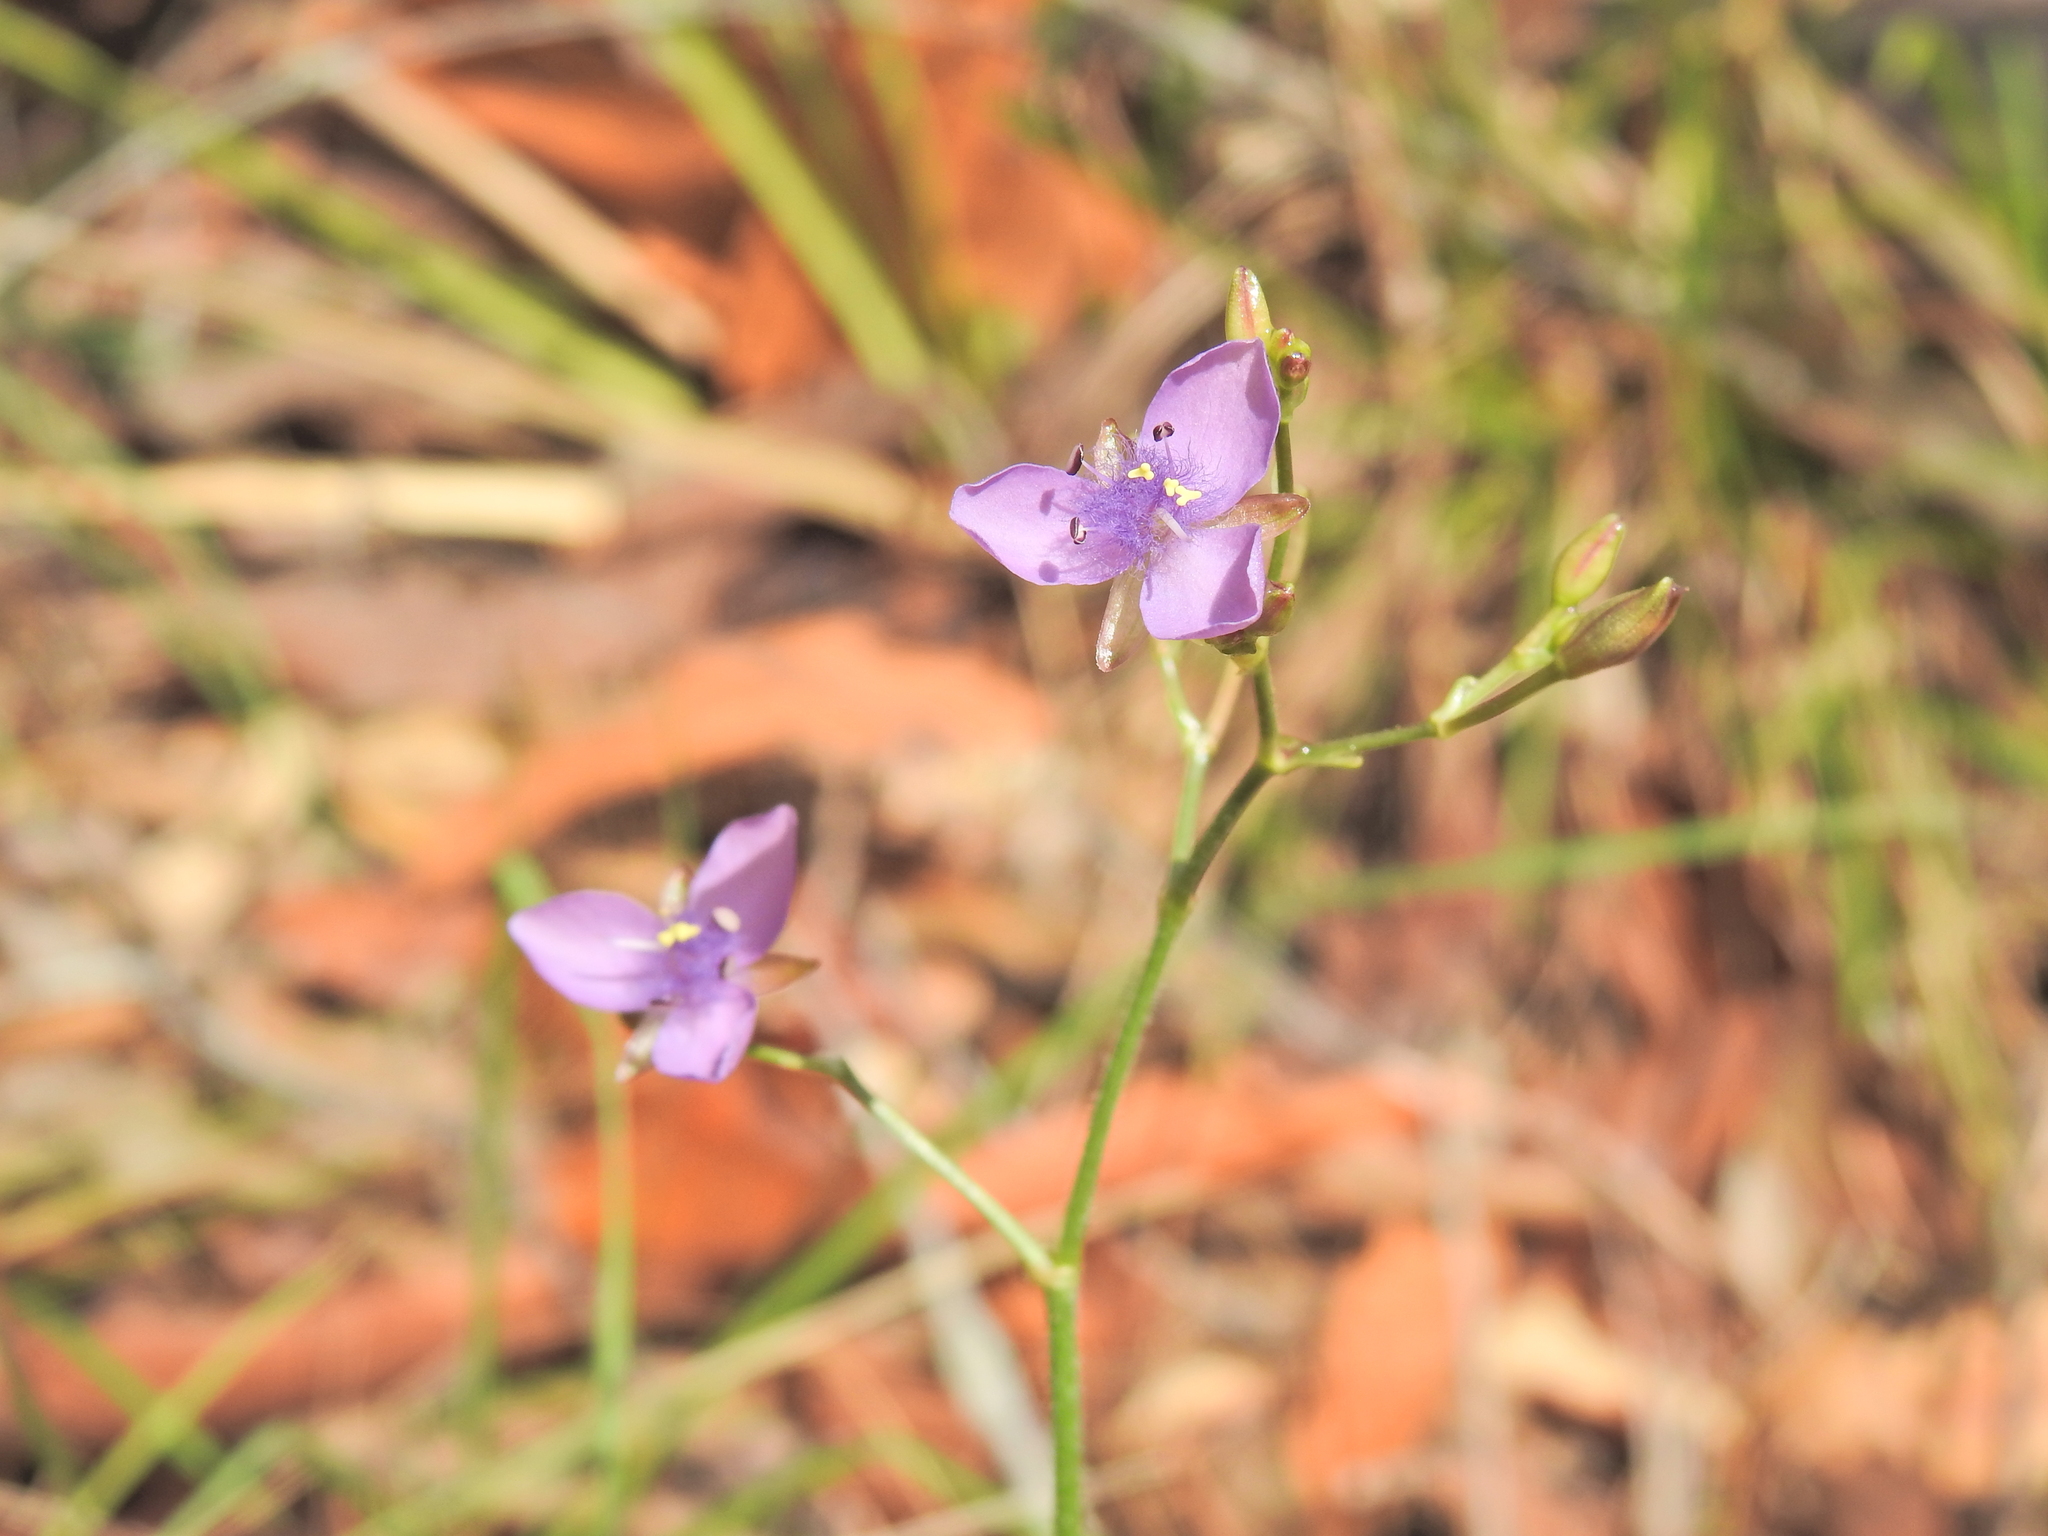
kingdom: Plantae
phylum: Tracheophyta
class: Liliopsida
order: Commelinales
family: Commelinaceae
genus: Murdannia
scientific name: Murdannia graminea
